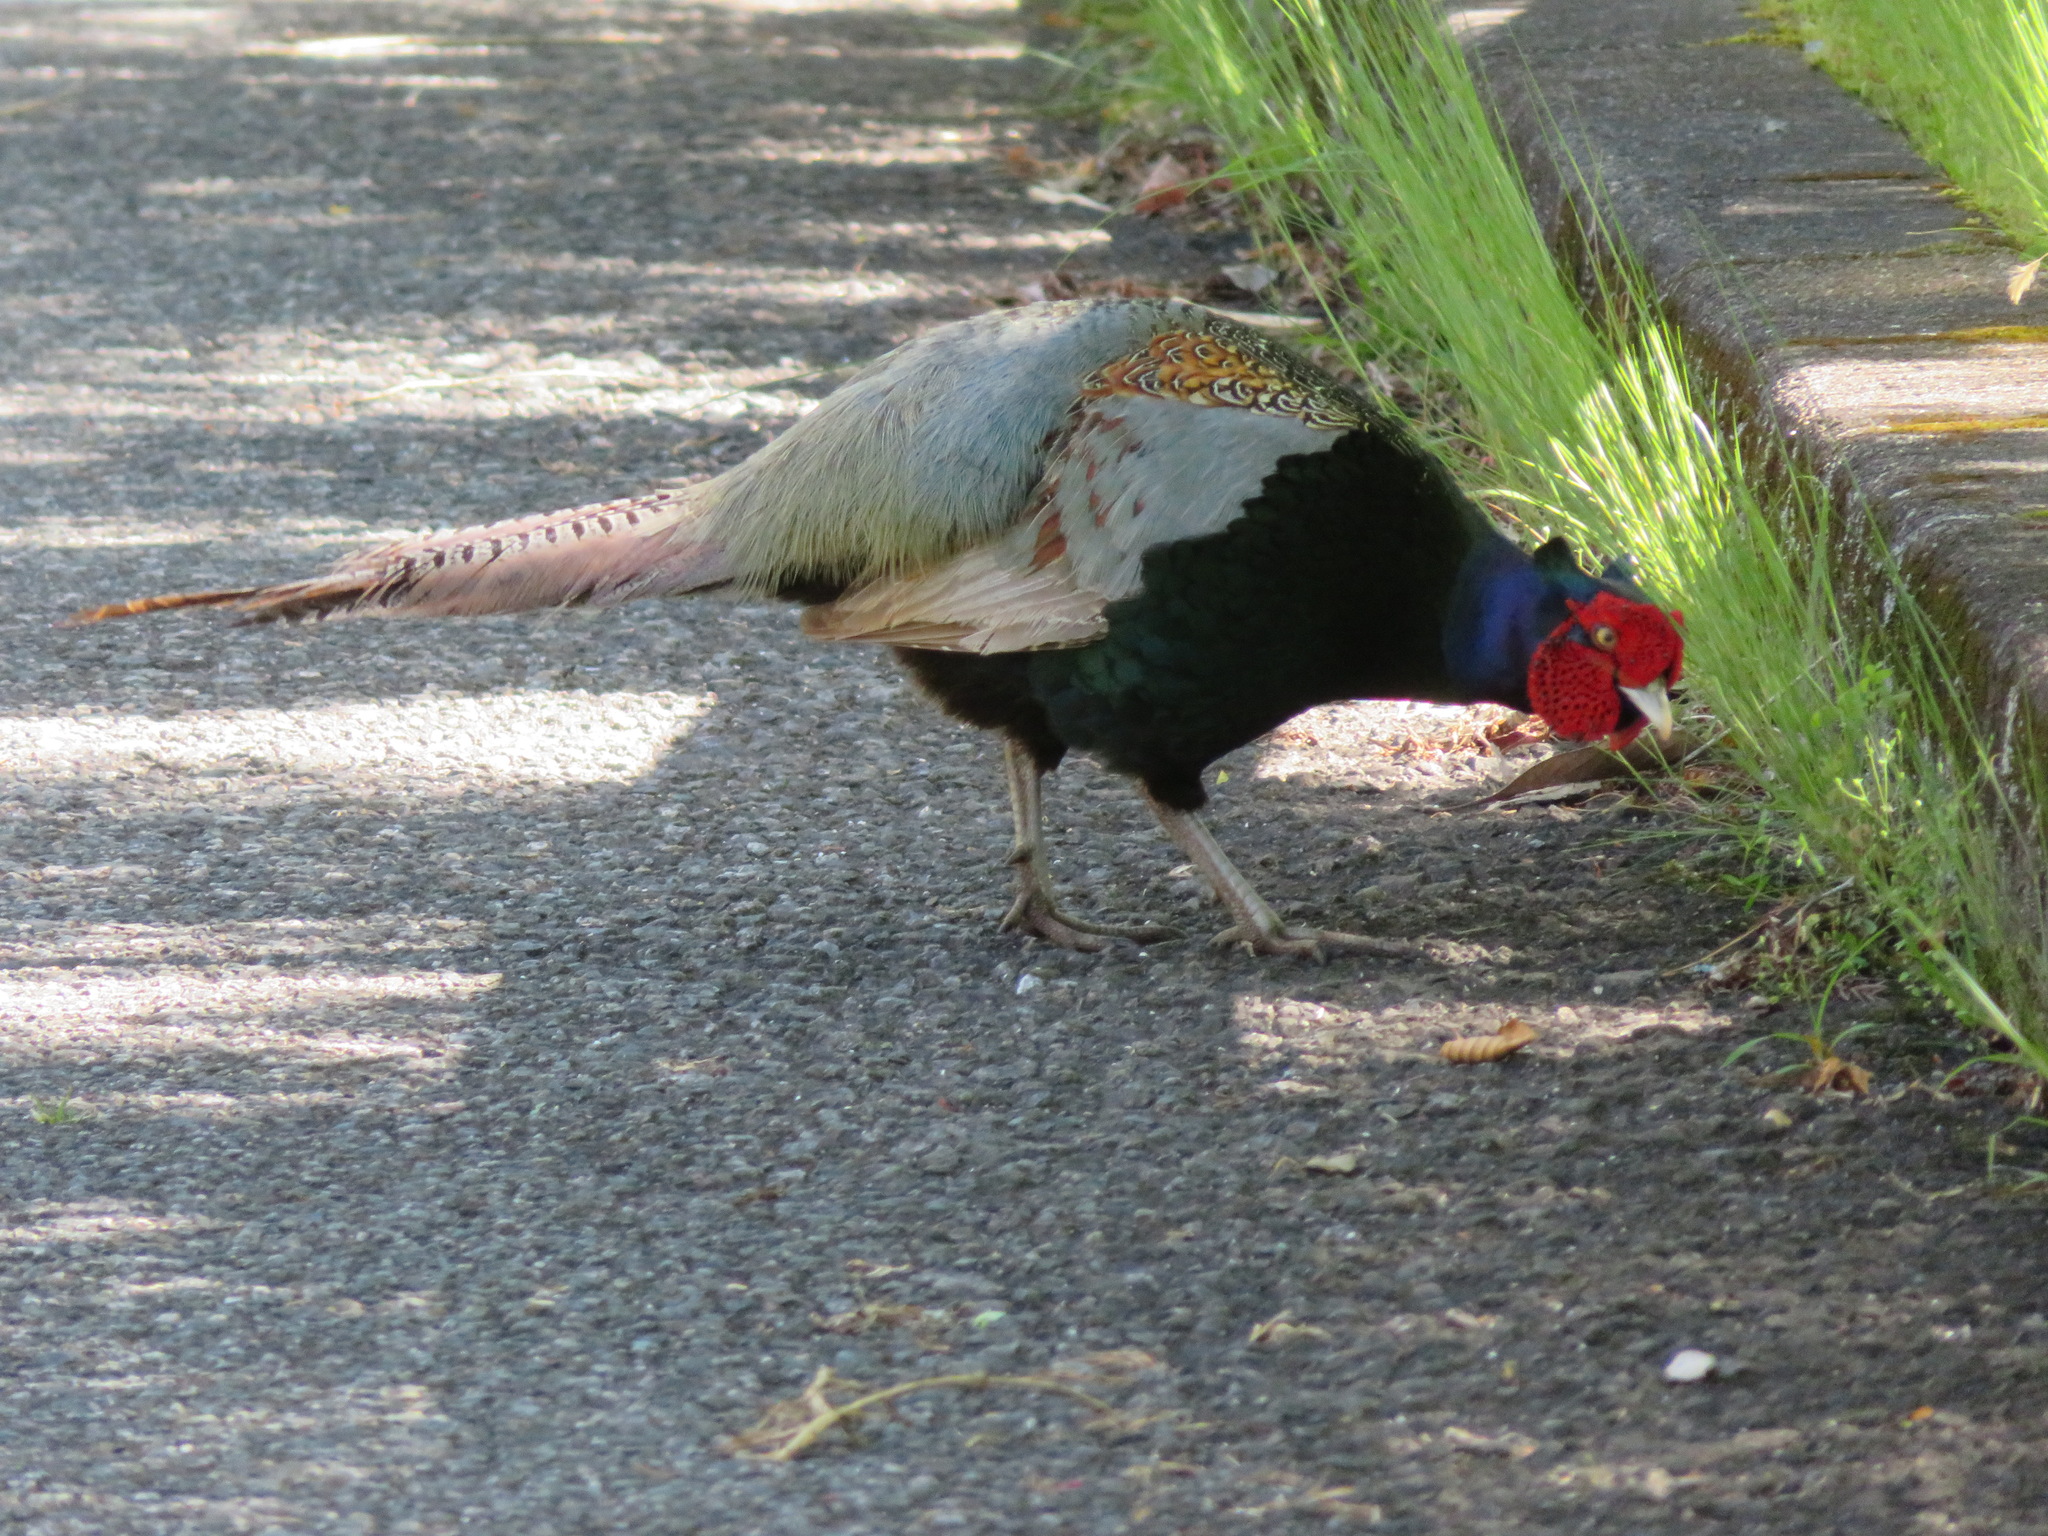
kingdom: Animalia
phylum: Chordata
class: Aves
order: Galliformes
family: Phasianidae
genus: Phasianus
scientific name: Phasianus versicolor
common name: Green pheasant
